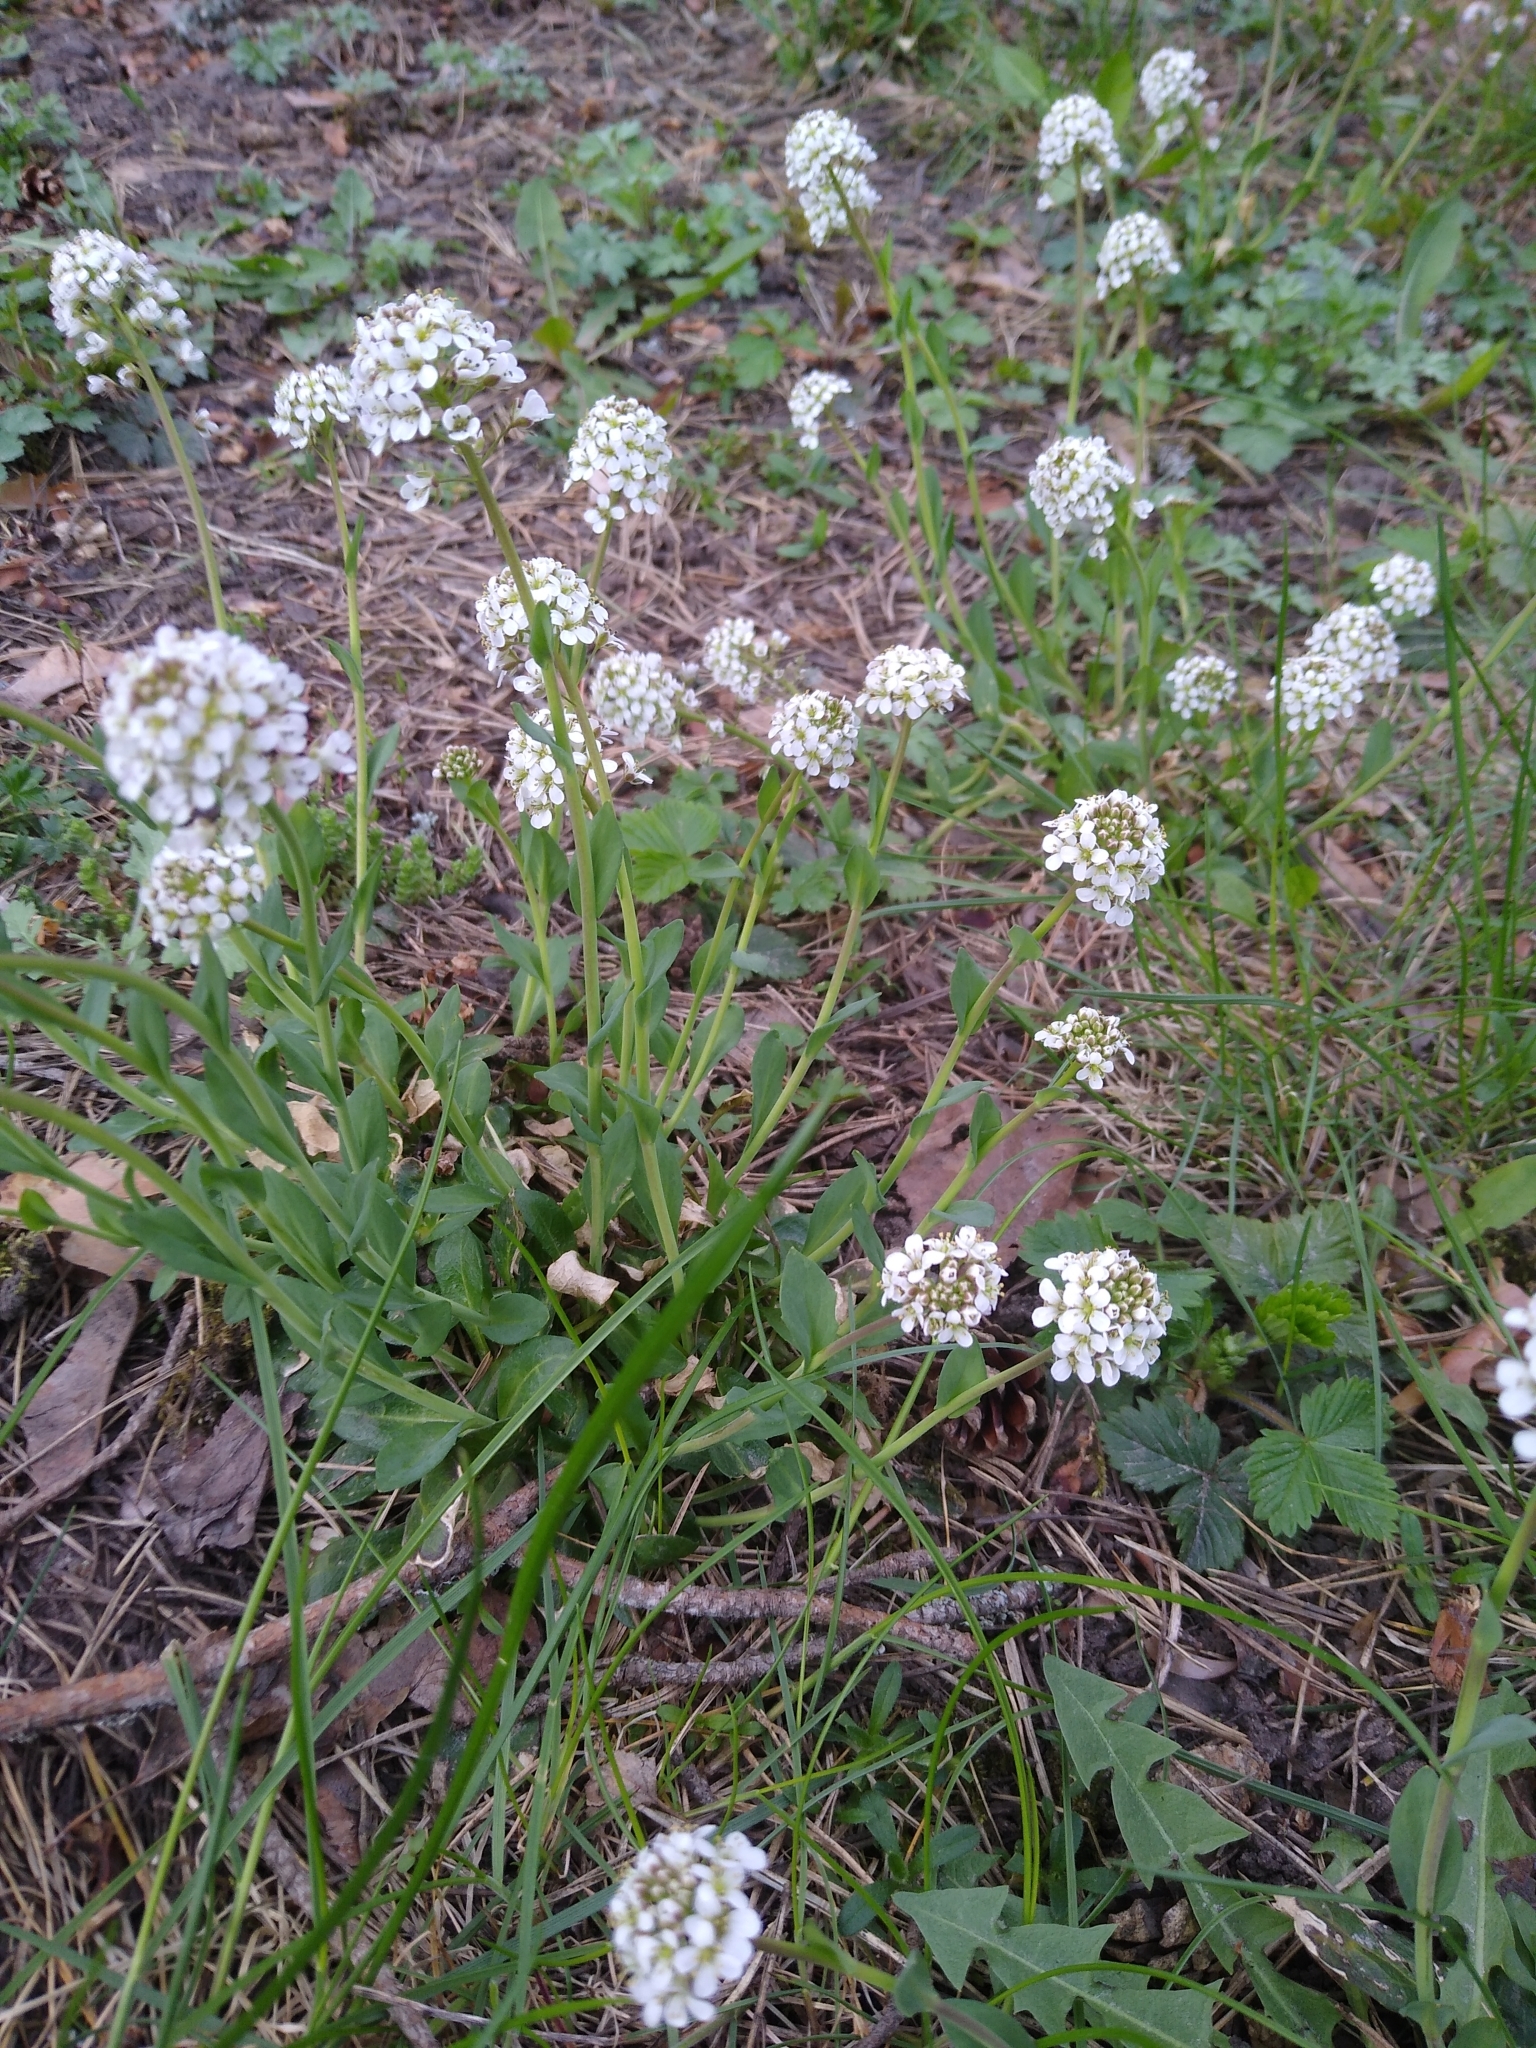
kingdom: Plantae
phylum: Tracheophyta
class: Magnoliopsida
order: Brassicales
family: Brassicaceae
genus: Noccaea
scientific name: Noccaea caerulescens
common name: Alpine pennycress
